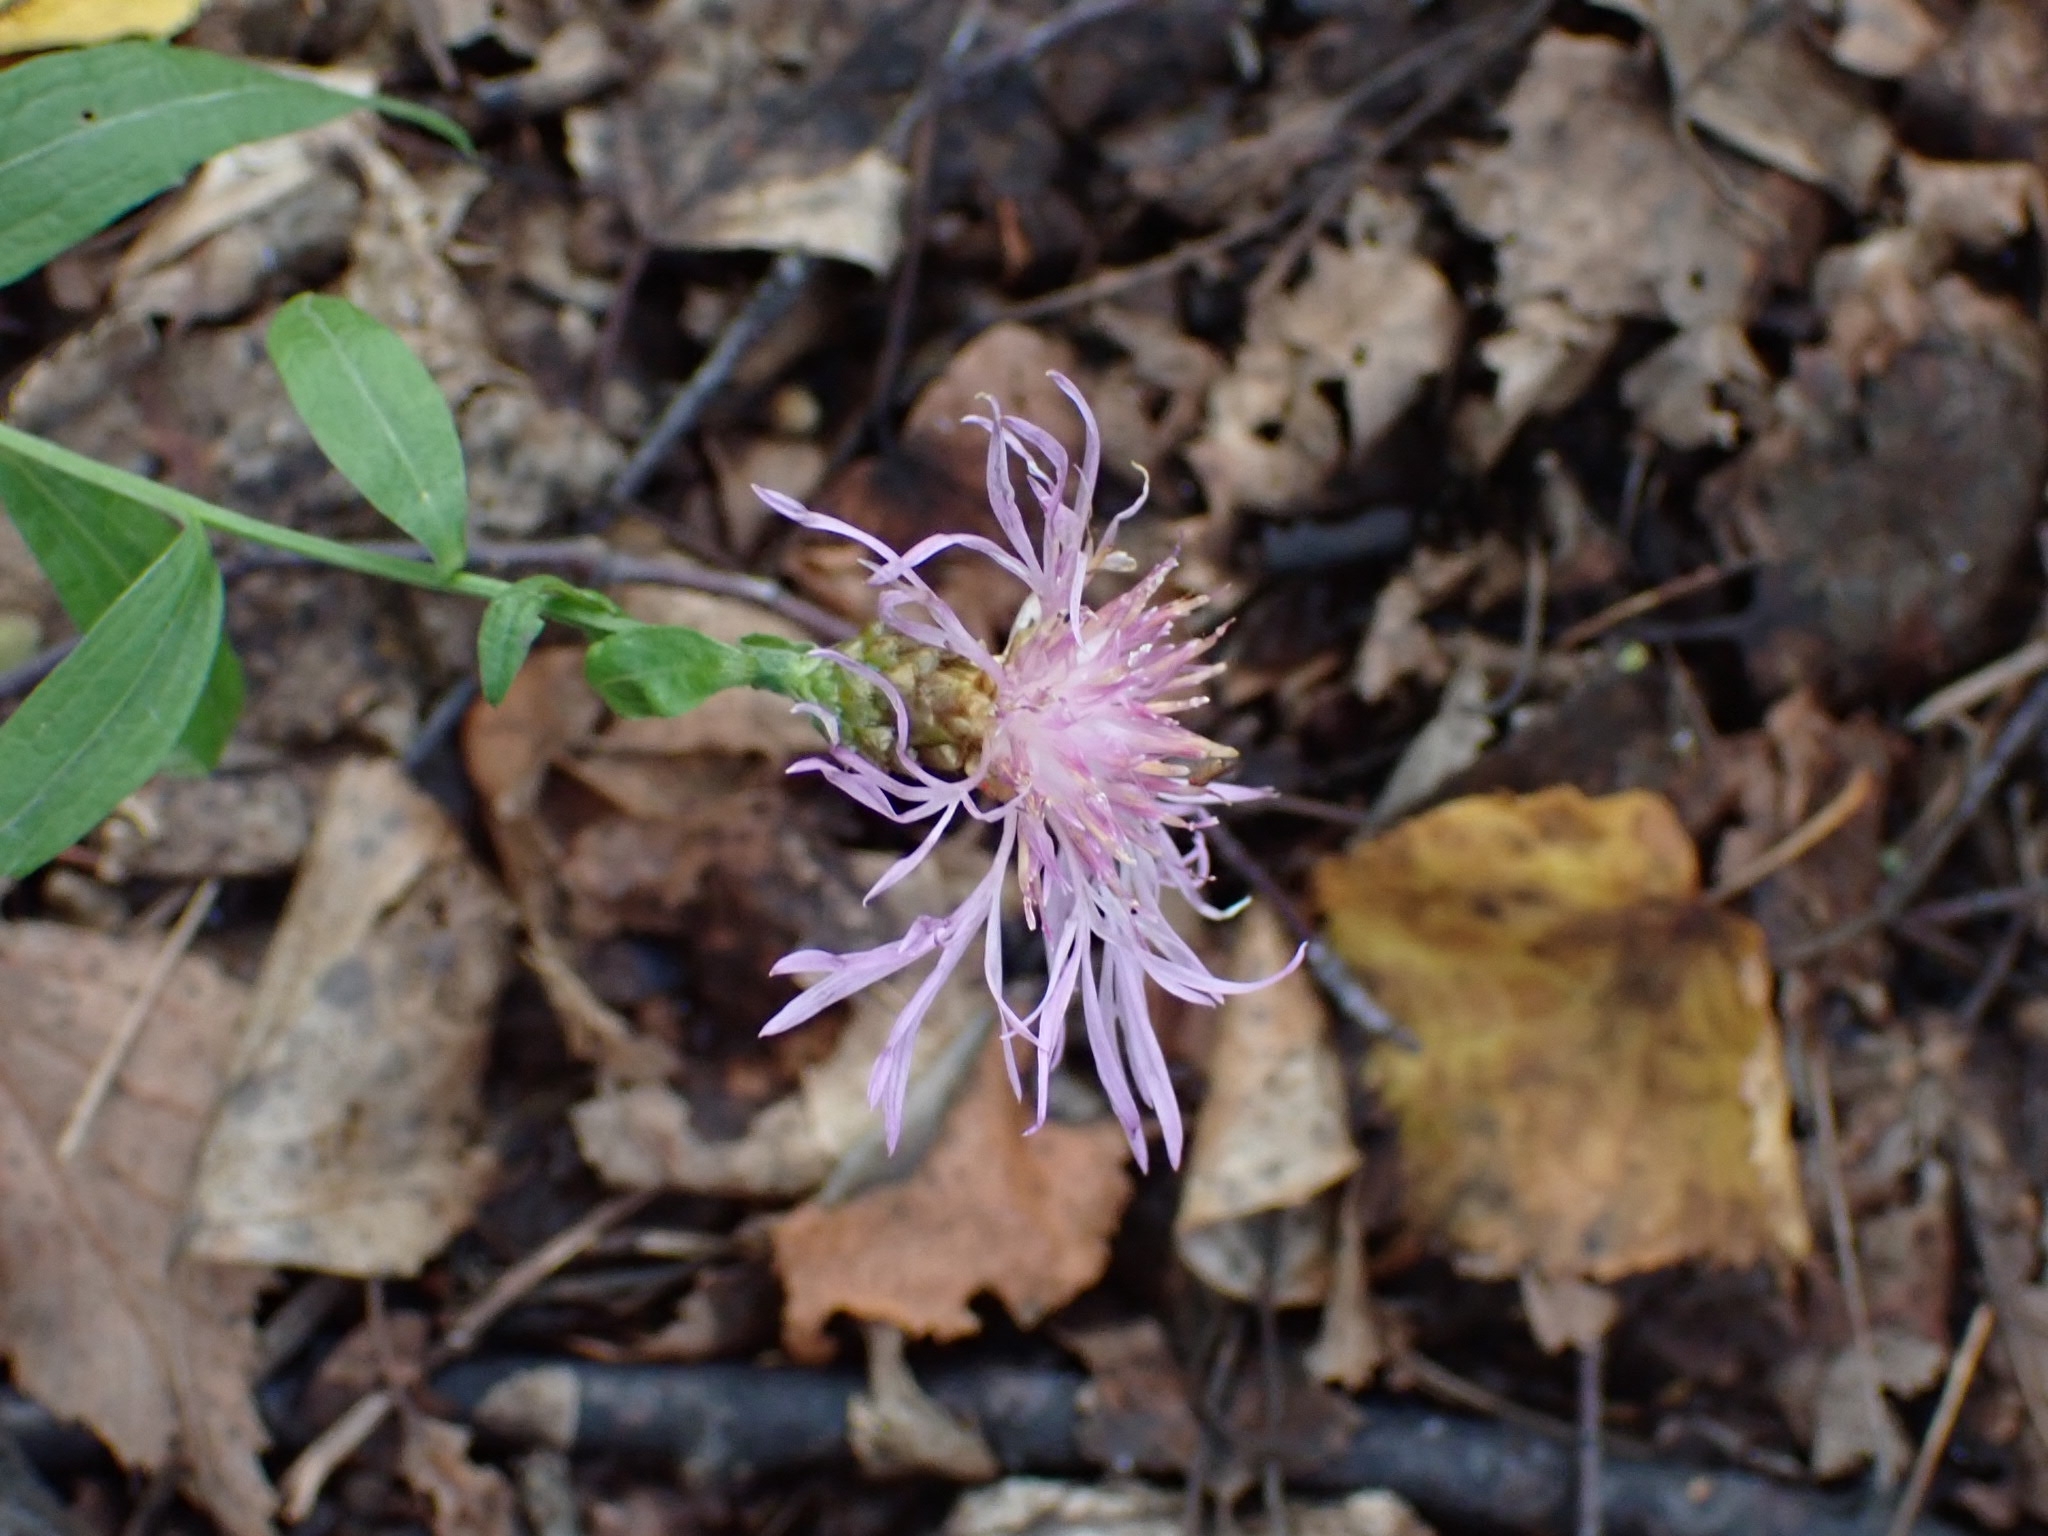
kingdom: Plantae
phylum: Tracheophyta
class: Magnoliopsida
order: Asterales
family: Asteraceae
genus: Centaurea
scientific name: Centaurea jacea
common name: Brown knapweed
